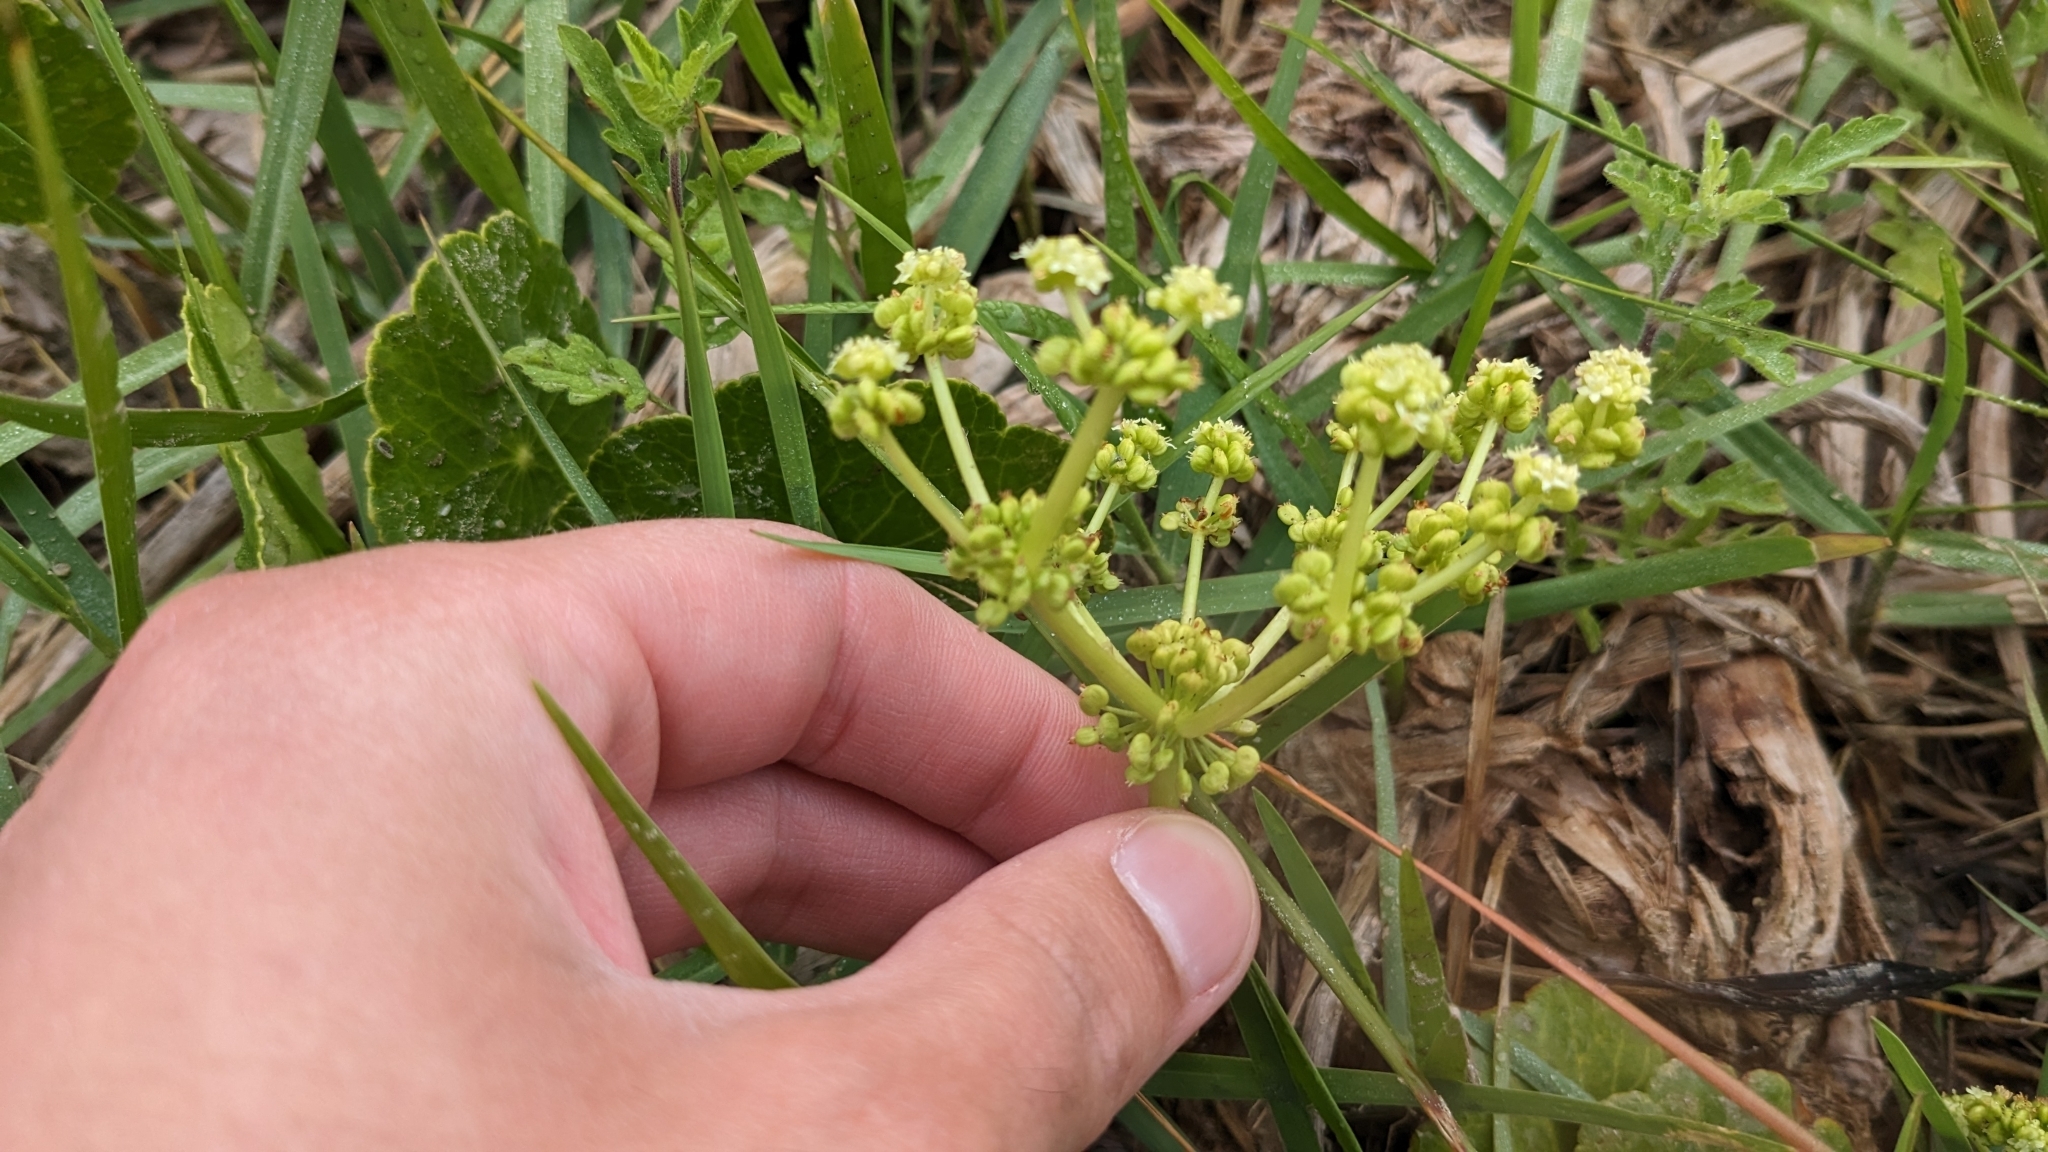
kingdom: Plantae
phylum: Tracheophyta
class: Magnoliopsida
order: Apiales
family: Araliaceae
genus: Hydrocotyle
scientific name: Hydrocotyle bonariensis
